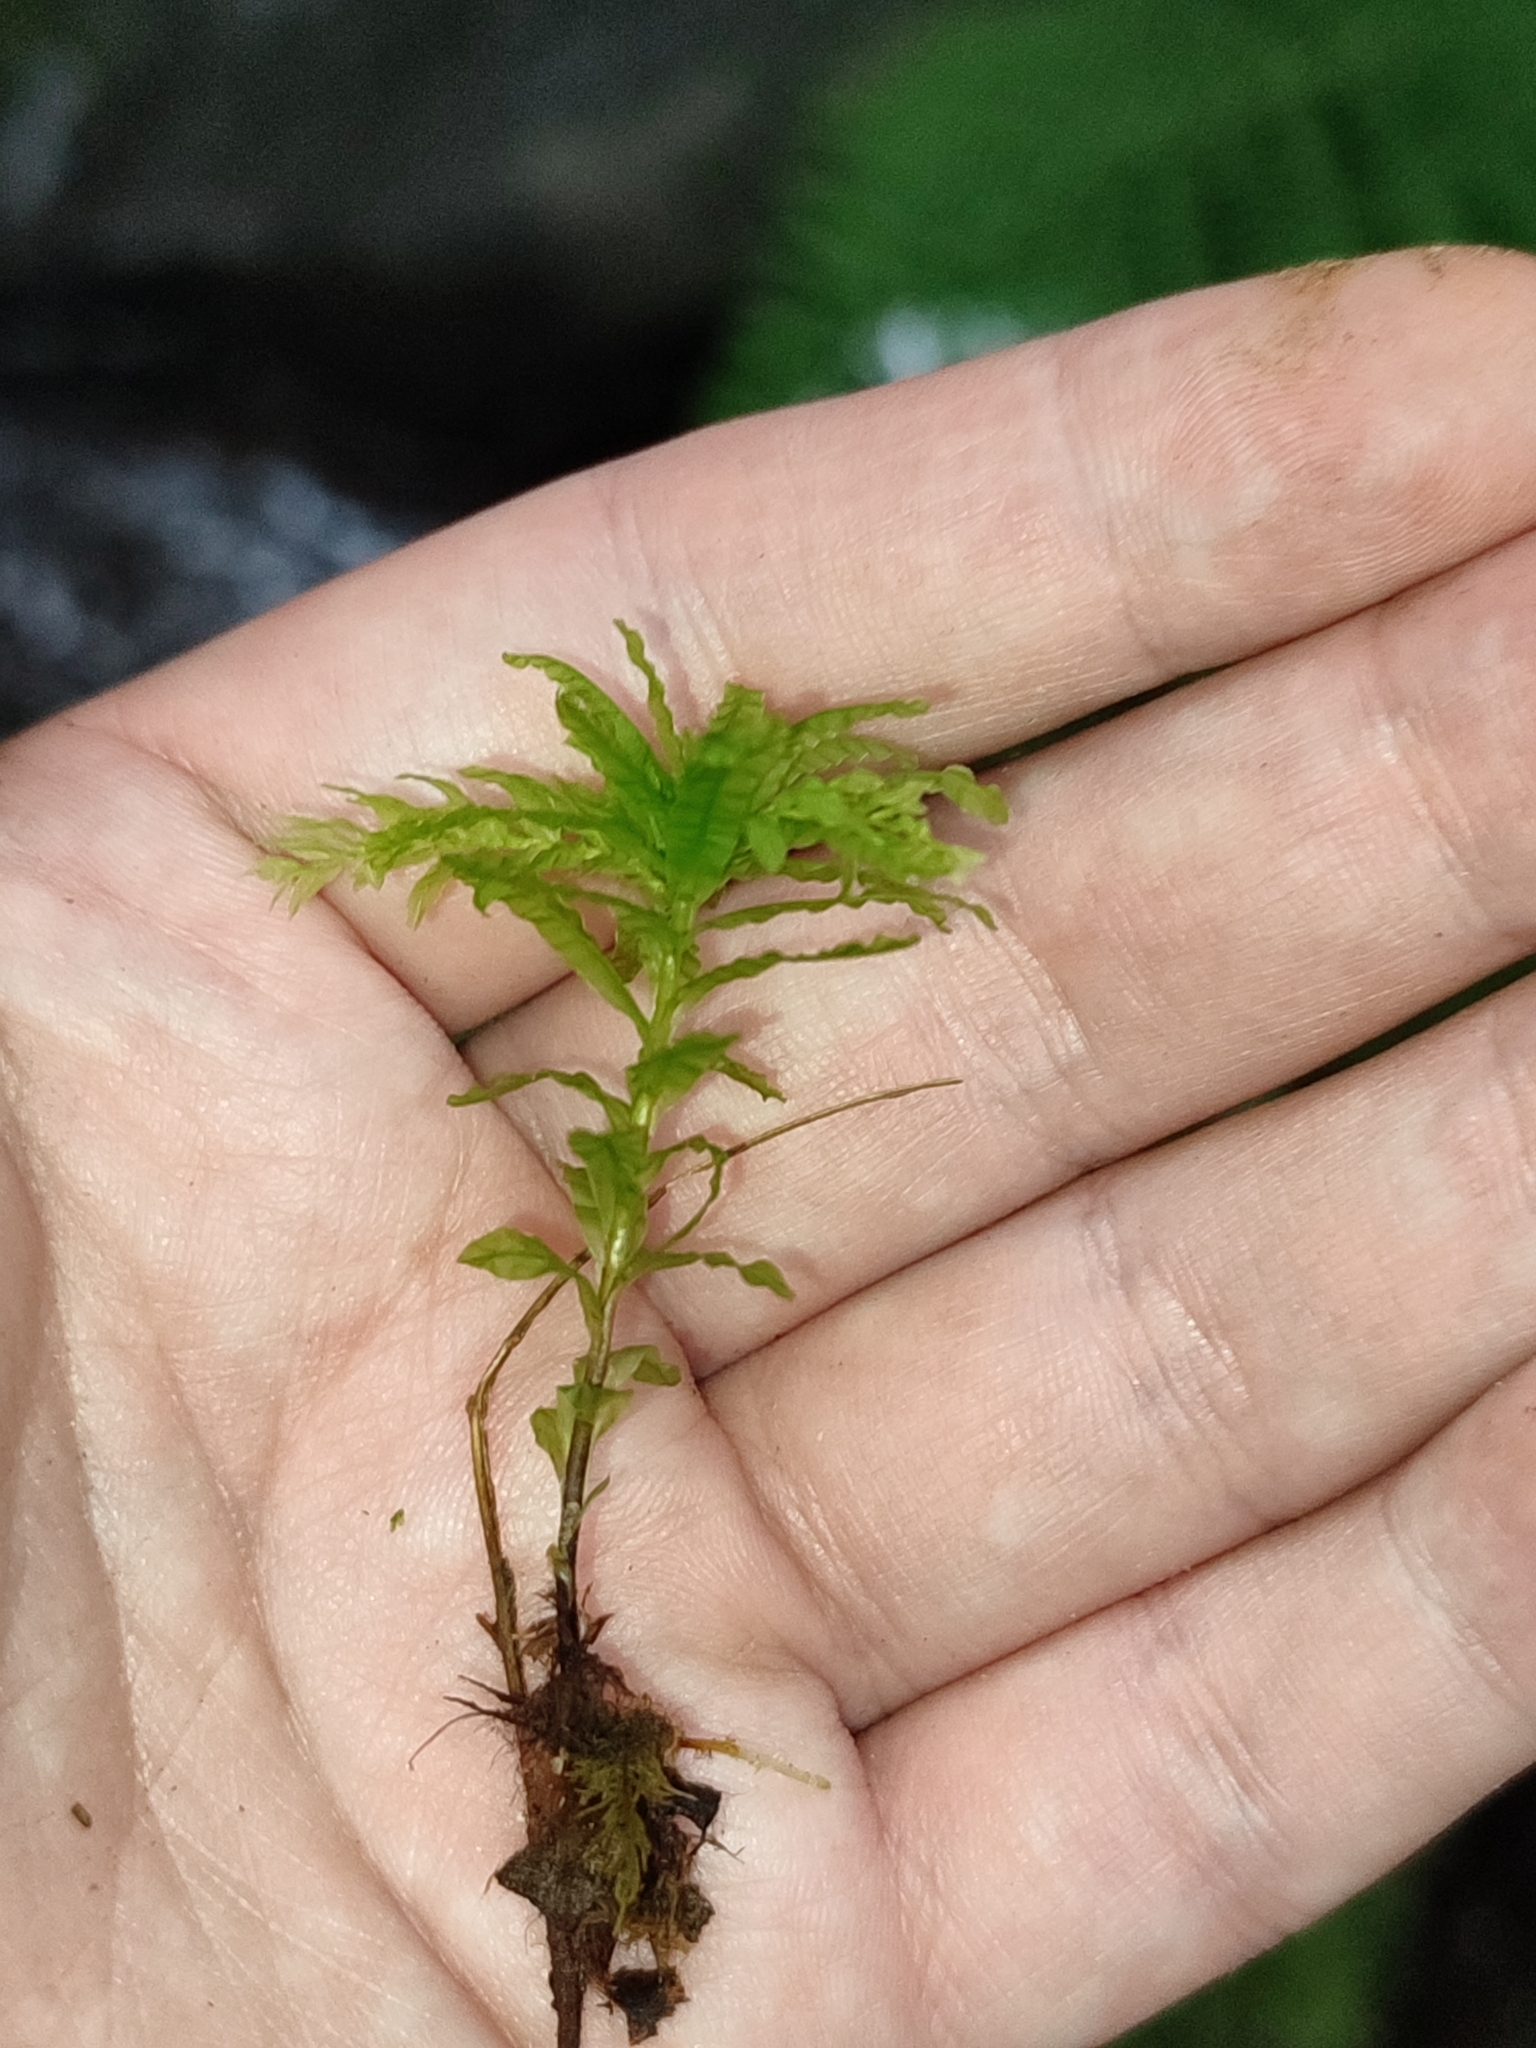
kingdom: Plantae
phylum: Bryophyta
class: Bryopsida
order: Bryales
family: Mniaceae
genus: Plagiomnium
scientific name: Plagiomnium undulatum
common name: Hart's-tongue thyme-moss
